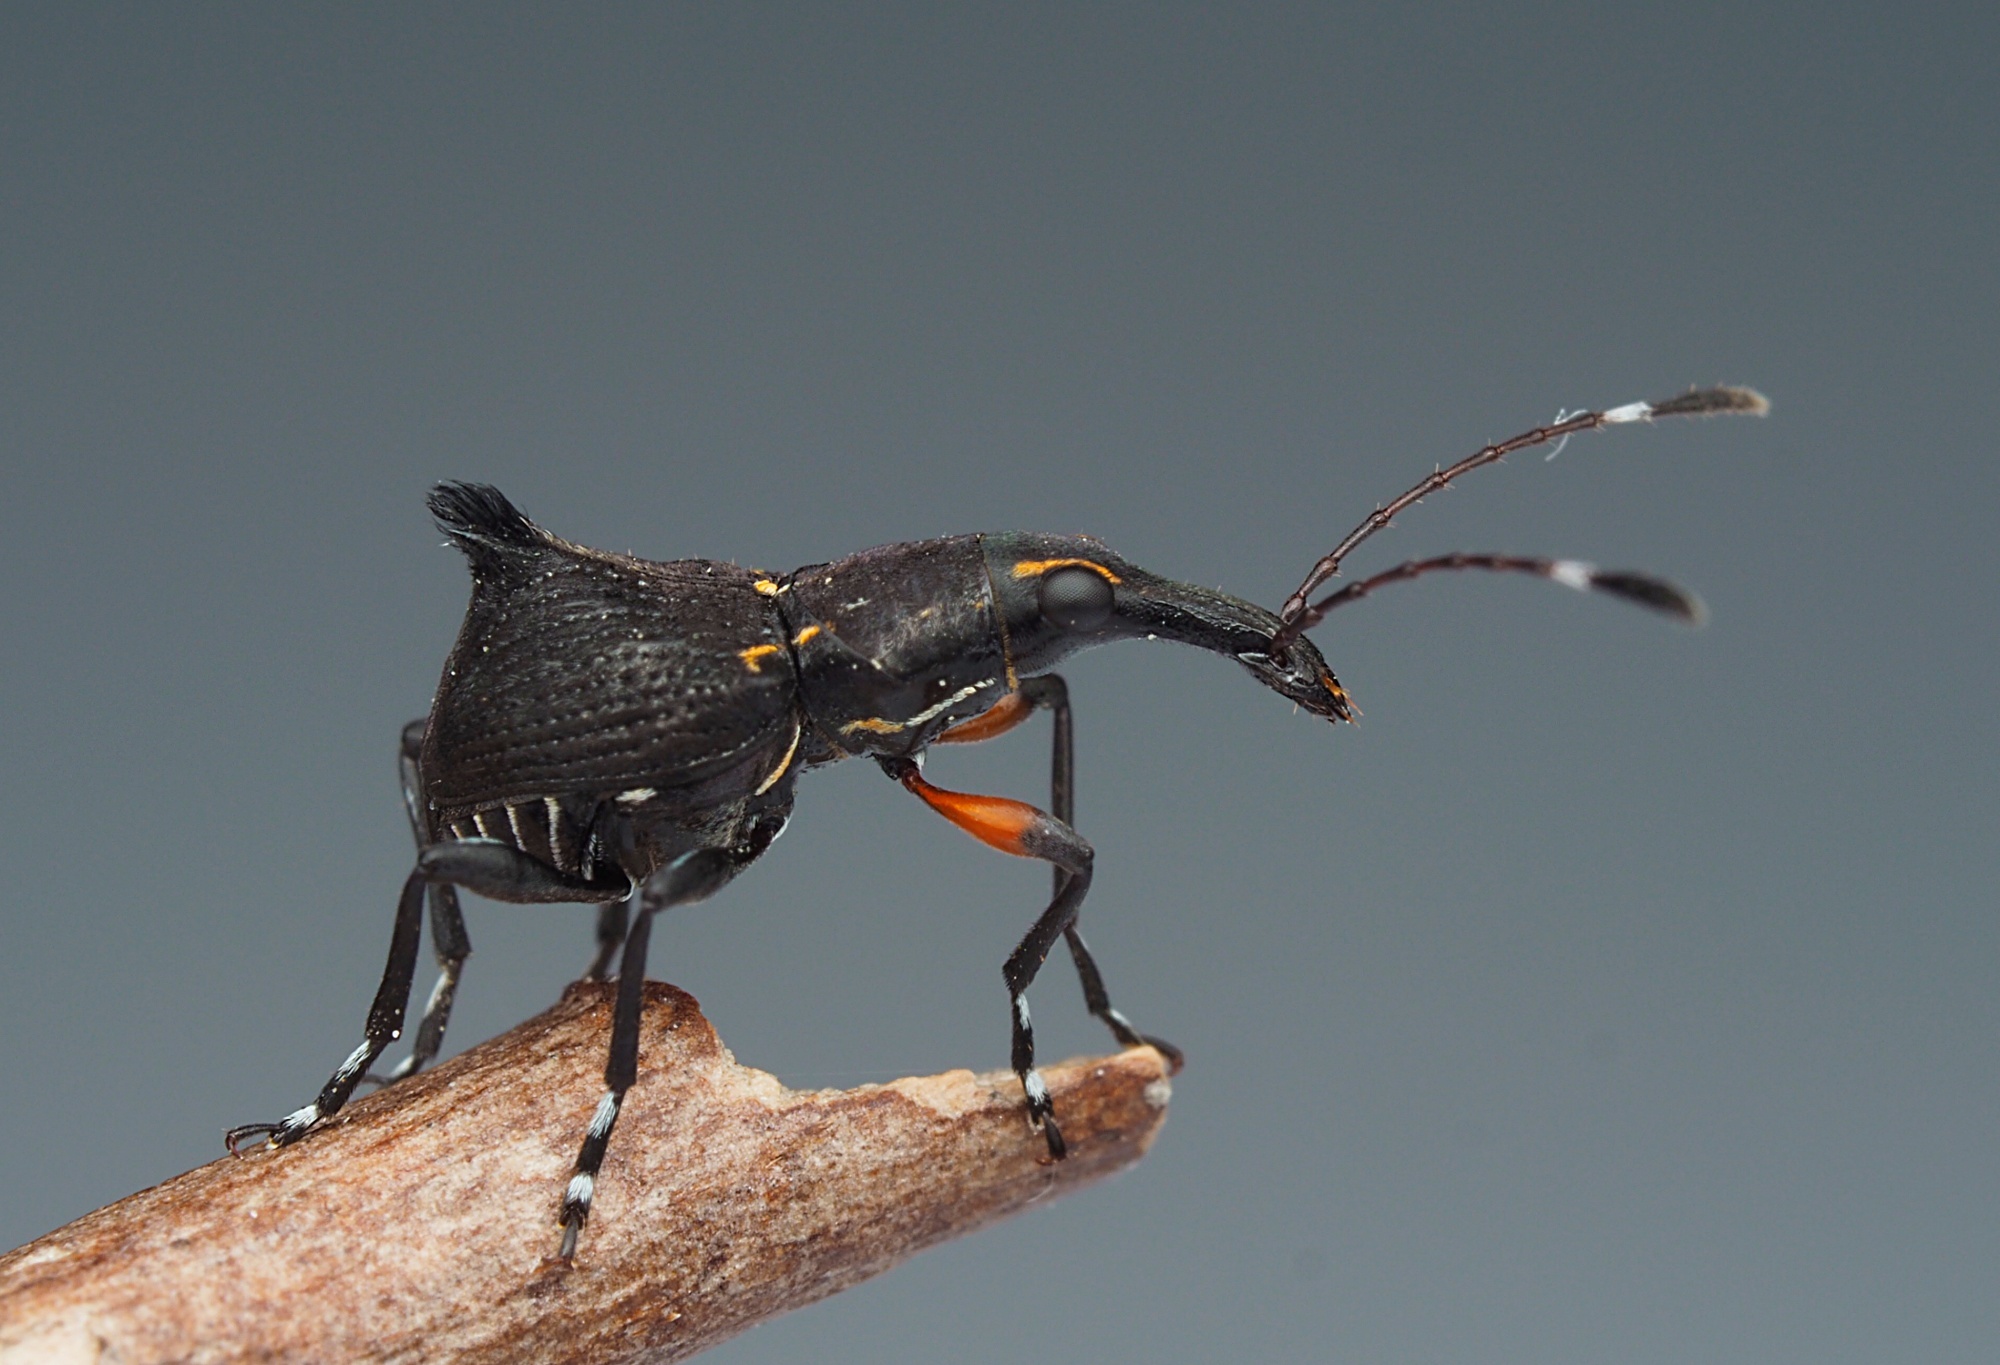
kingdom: Animalia
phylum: Arthropoda
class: Insecta
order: Coleoptera
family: Anthribidae
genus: Hoplorhaphus
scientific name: Hoplorhaphus
